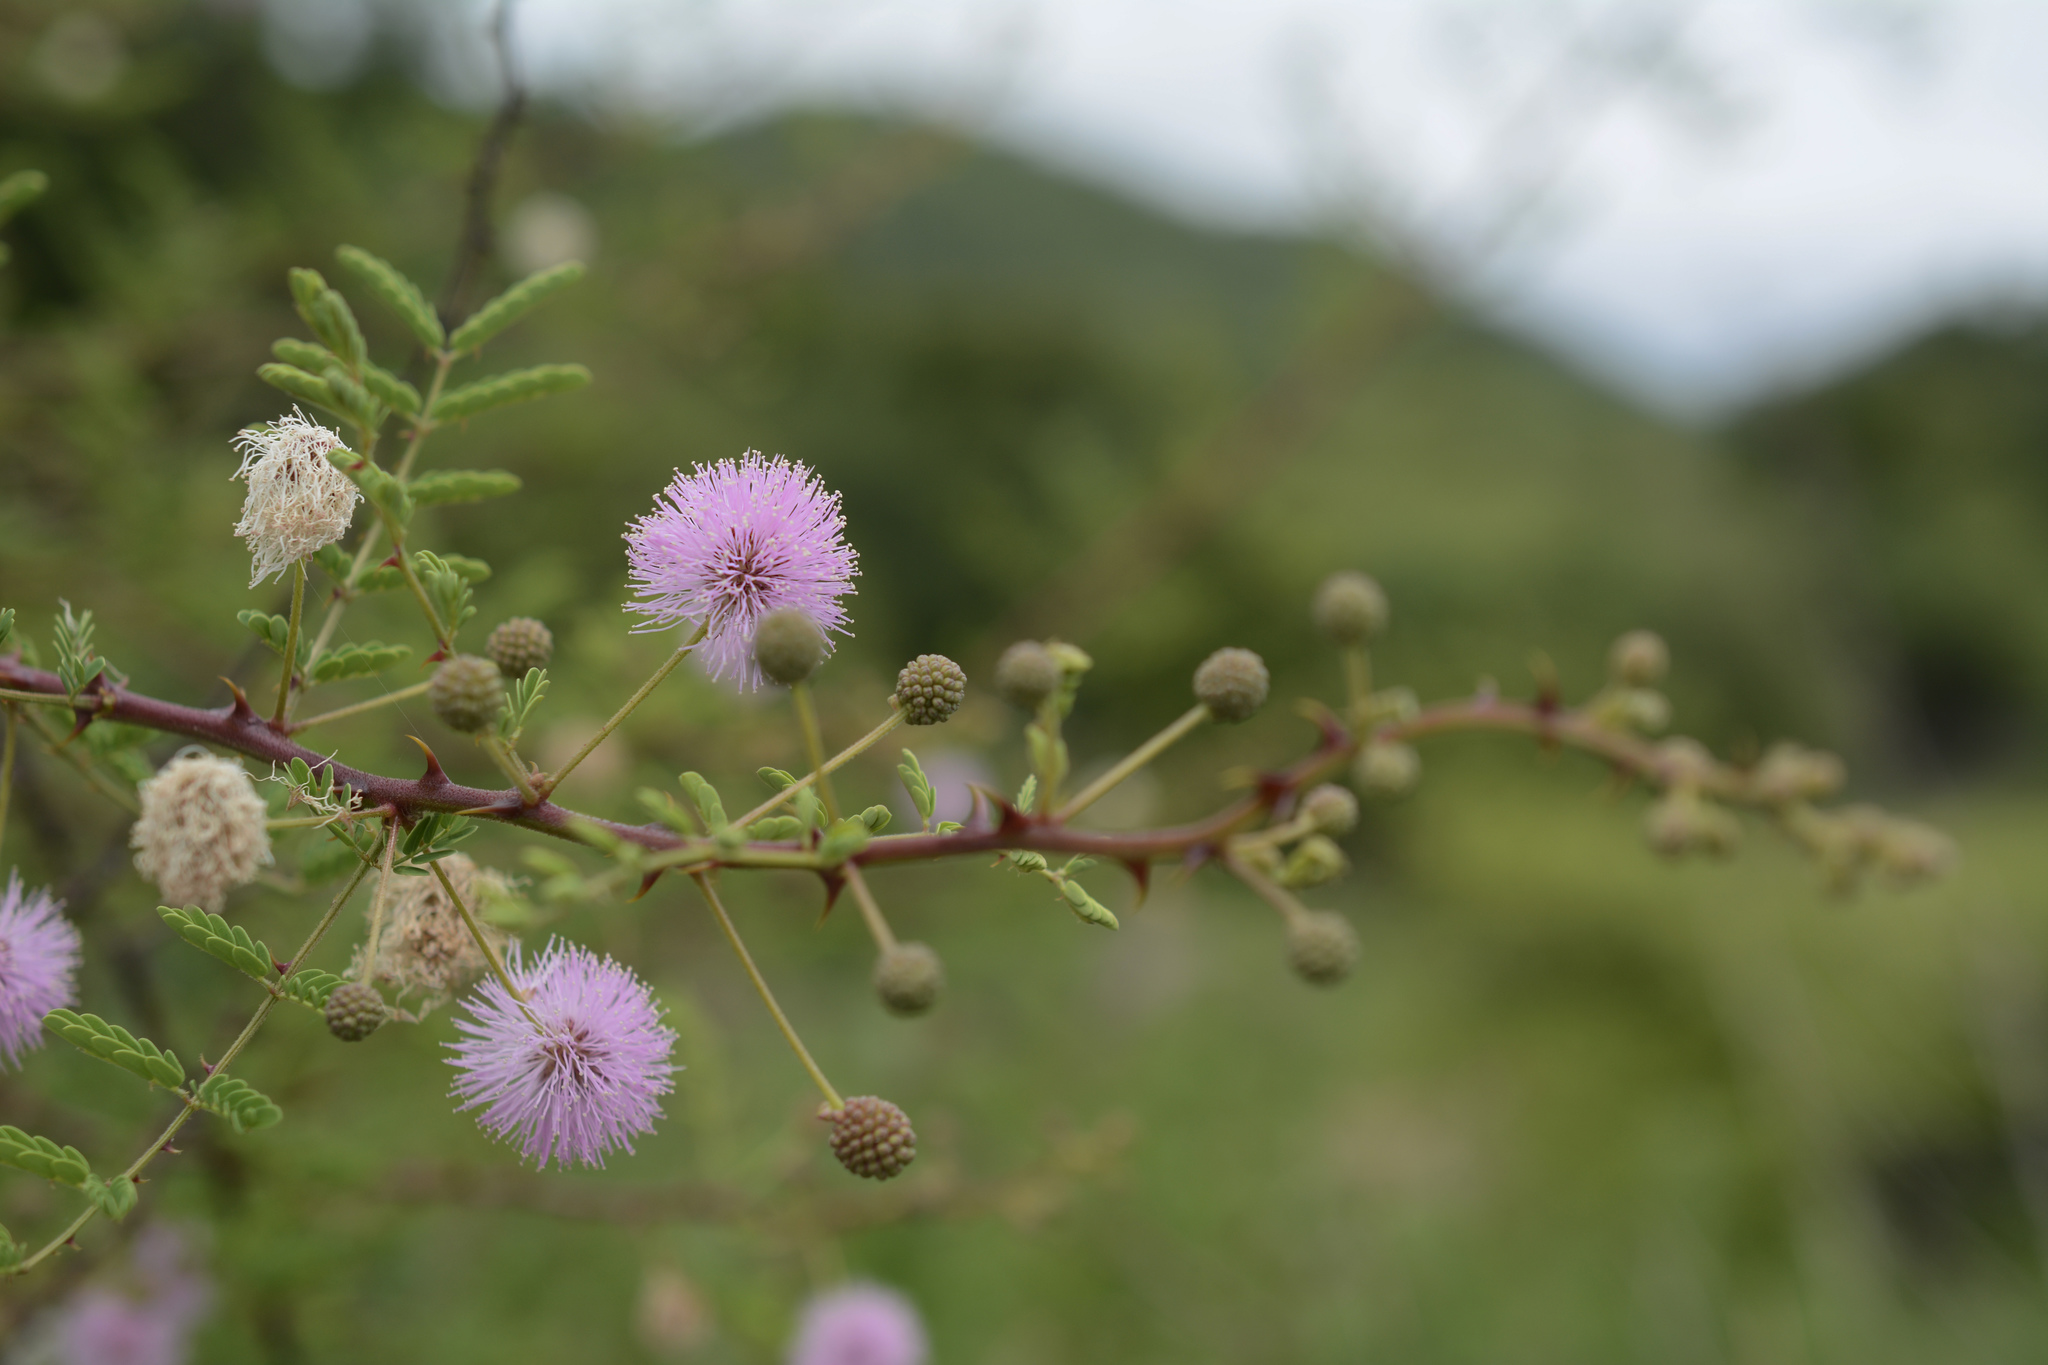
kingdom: Plantae
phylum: Tracheophyta
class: Magnoliopsida
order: Fabales
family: Fabaceae
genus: Mimosa
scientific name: Mimosa prainiana
